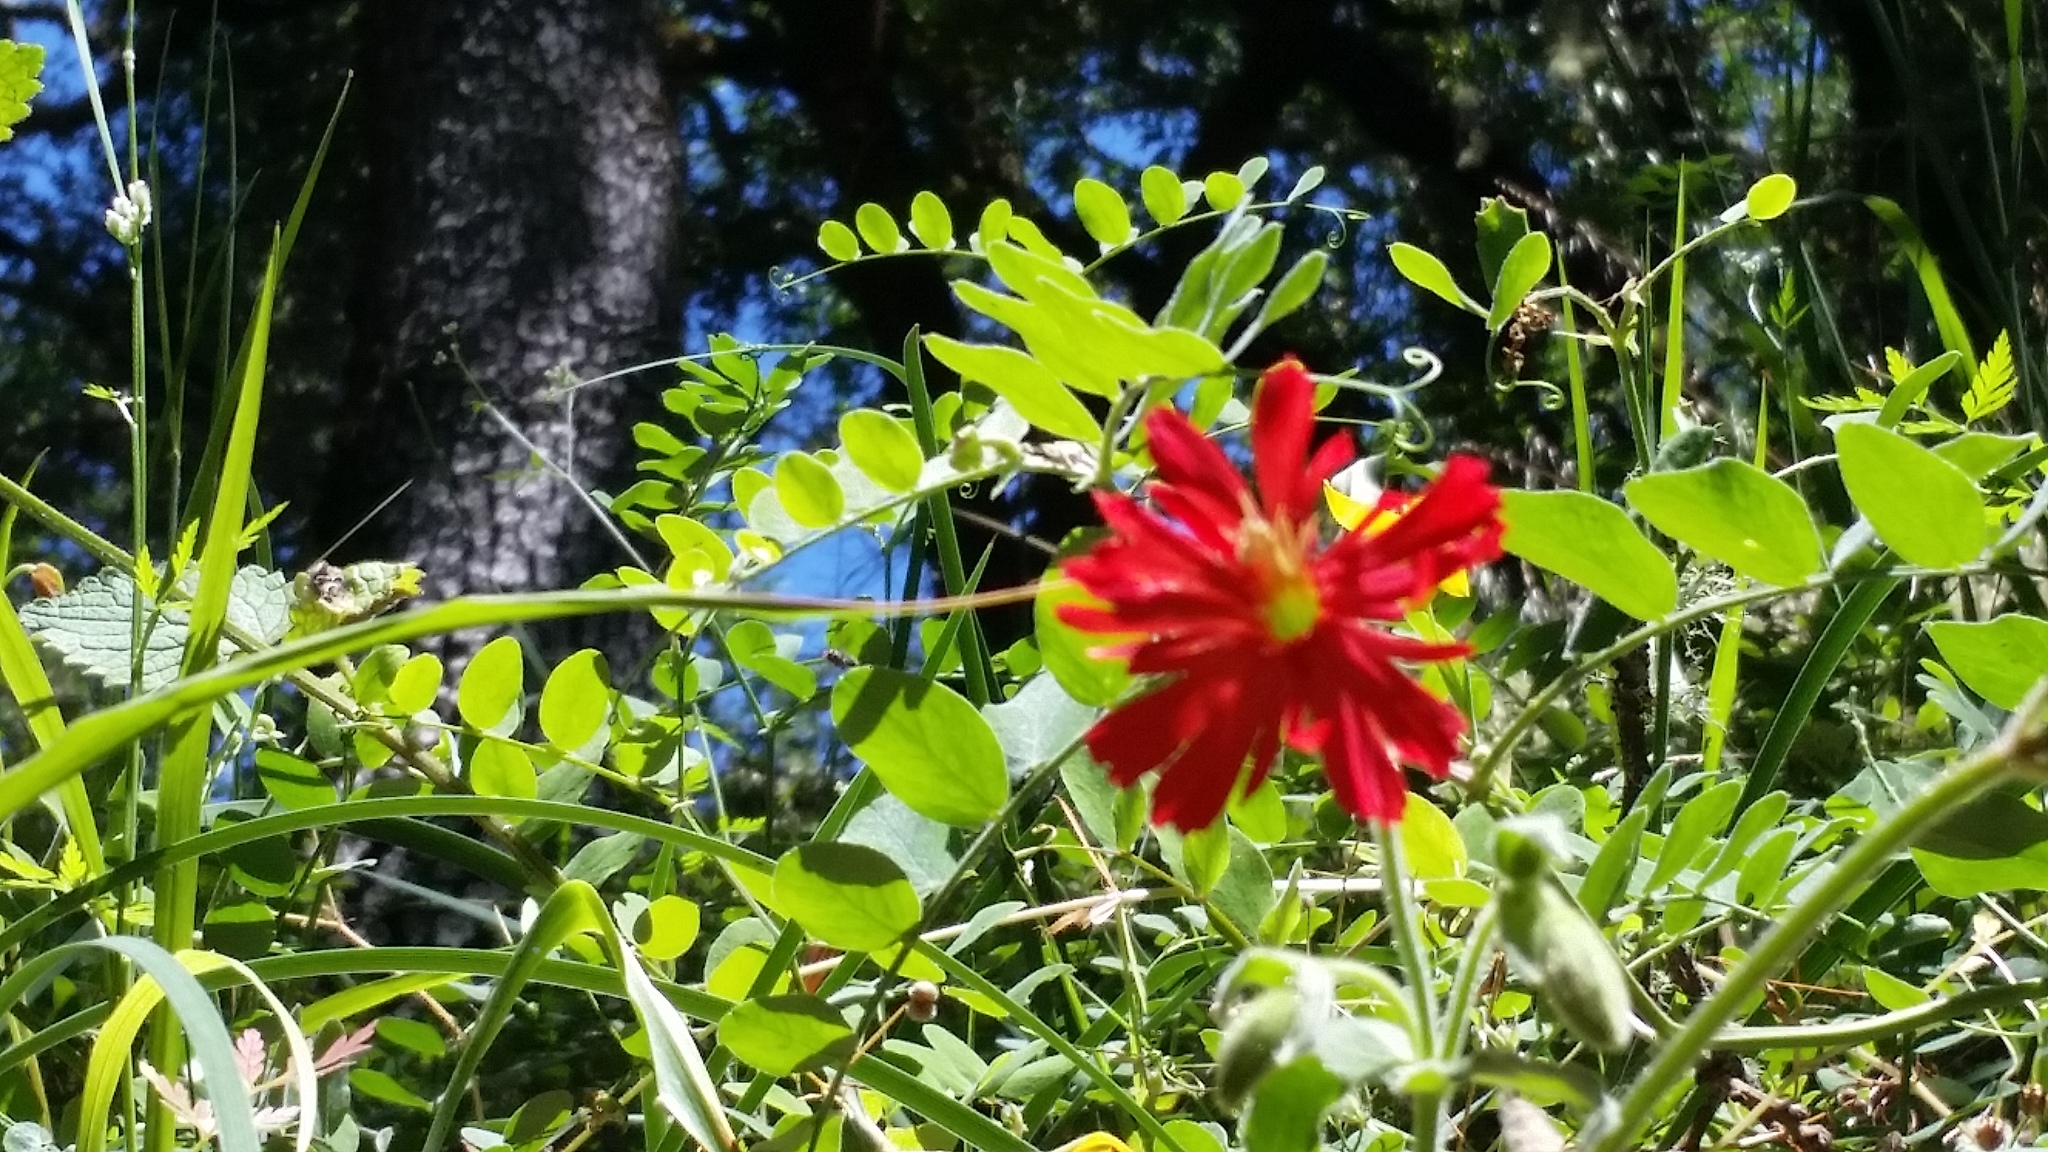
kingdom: Plantae
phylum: Tracheophyta
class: Magnoliopsida
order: Caryophyllales
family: Caryophyllaceae
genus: Silene
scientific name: Silene laciniata
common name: Indian-pink
